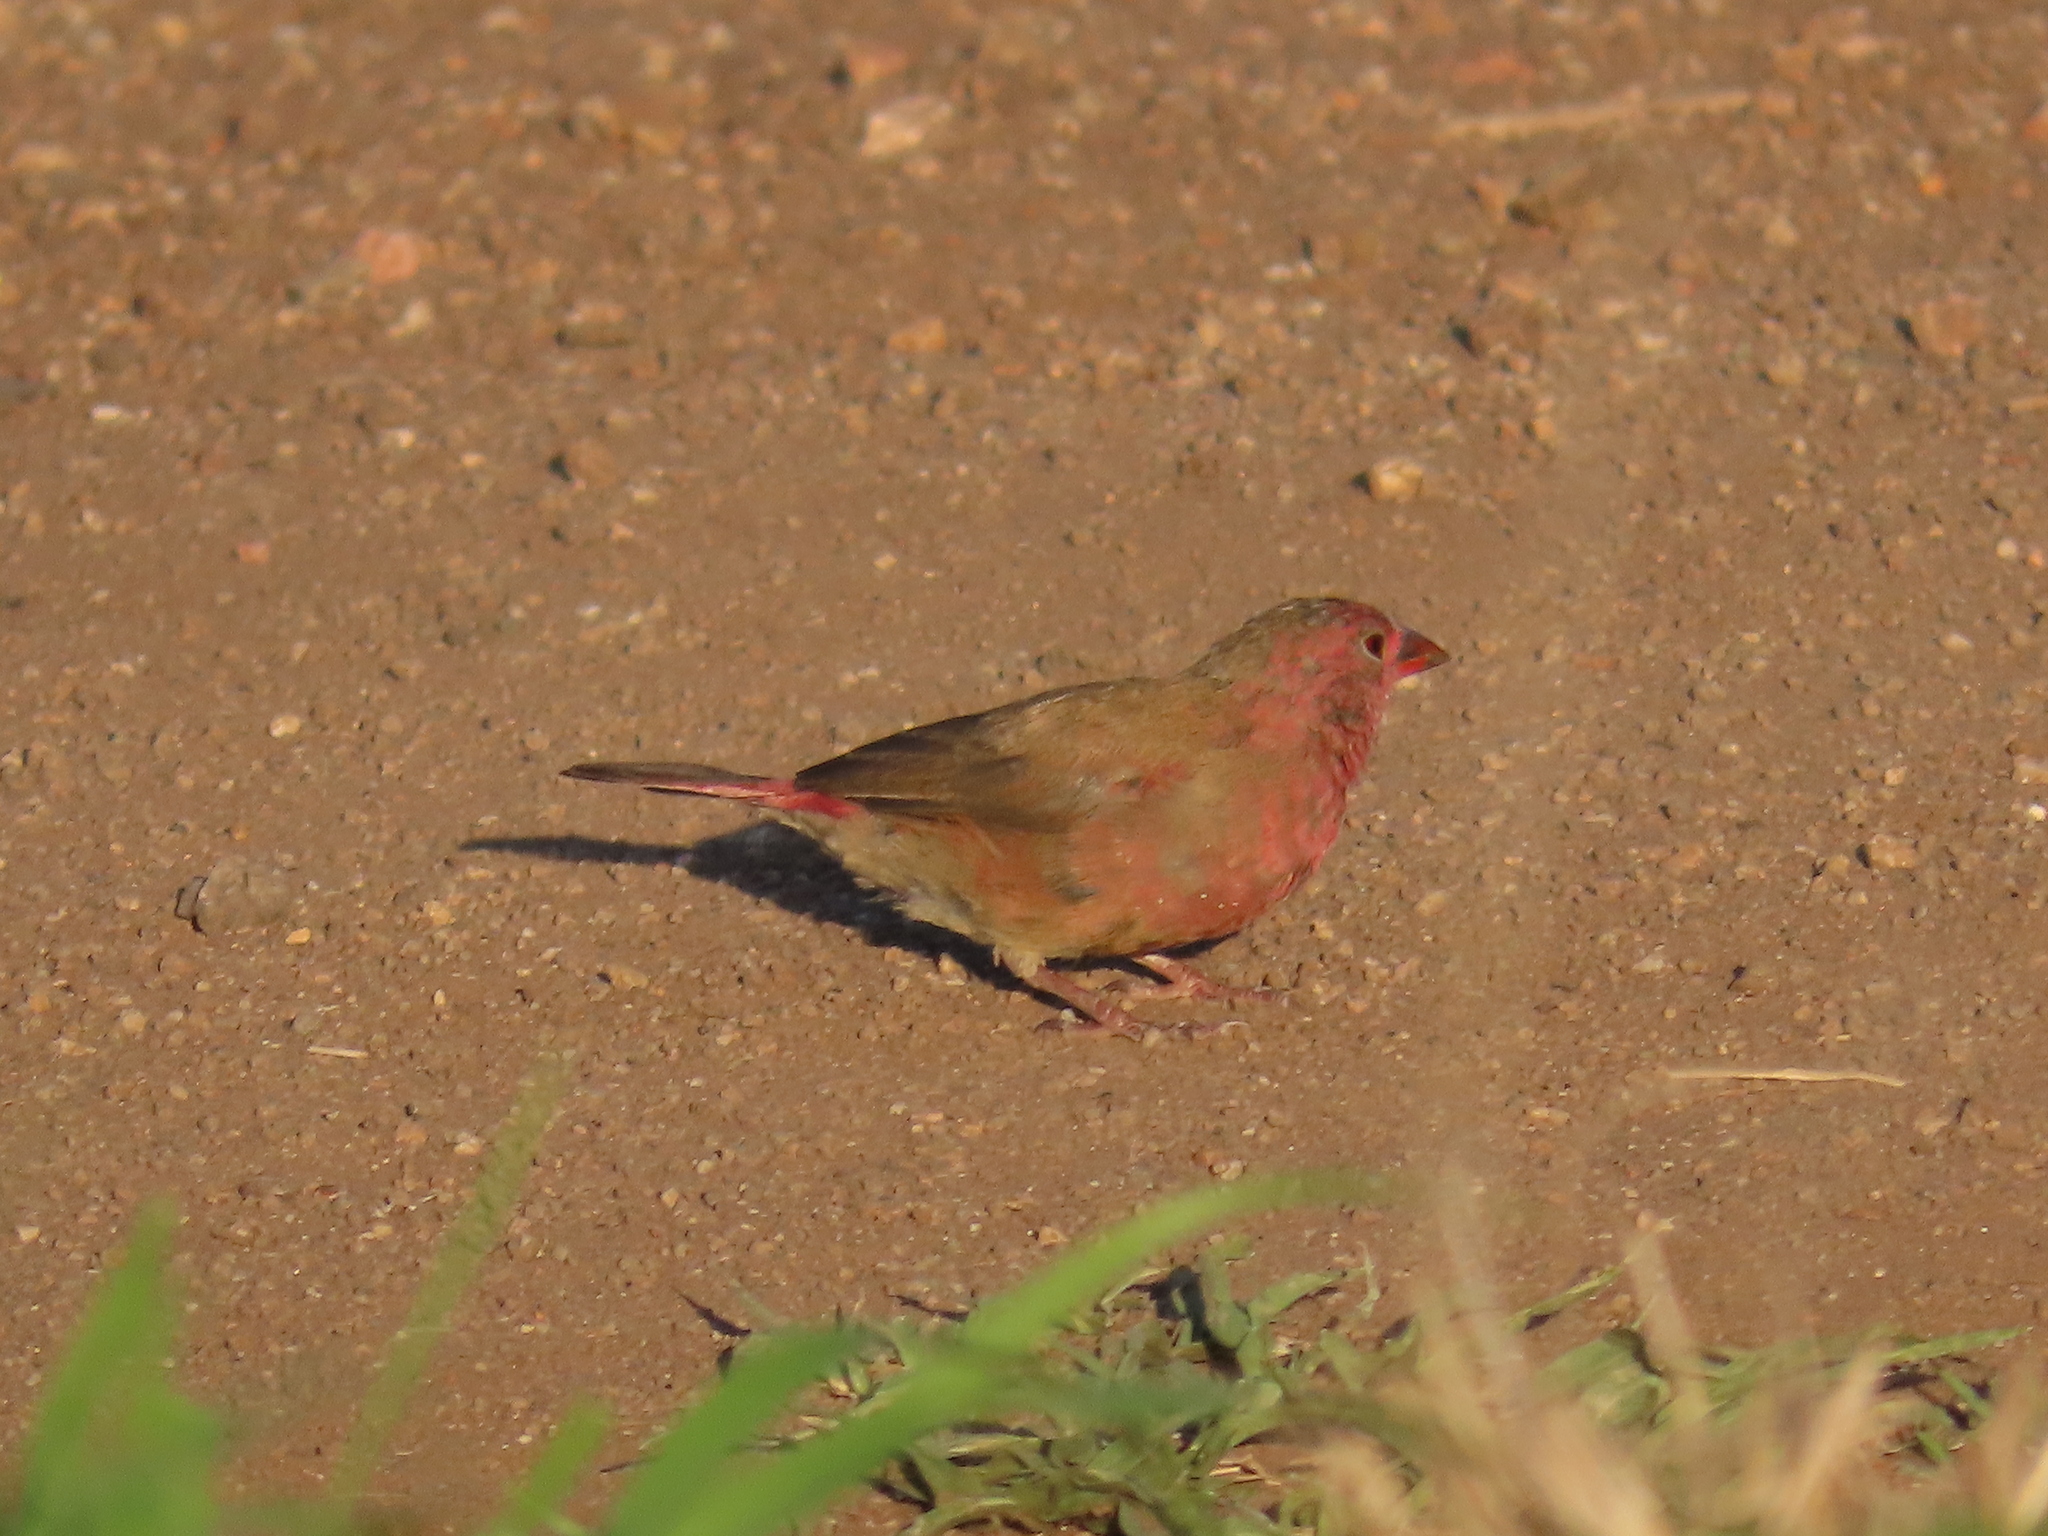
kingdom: Animalia
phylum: Chordata
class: Aves
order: Passeriformes
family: Estrildidae
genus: Lagonosticta
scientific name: Lagonosticta senegala
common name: Red-billed firefinch
